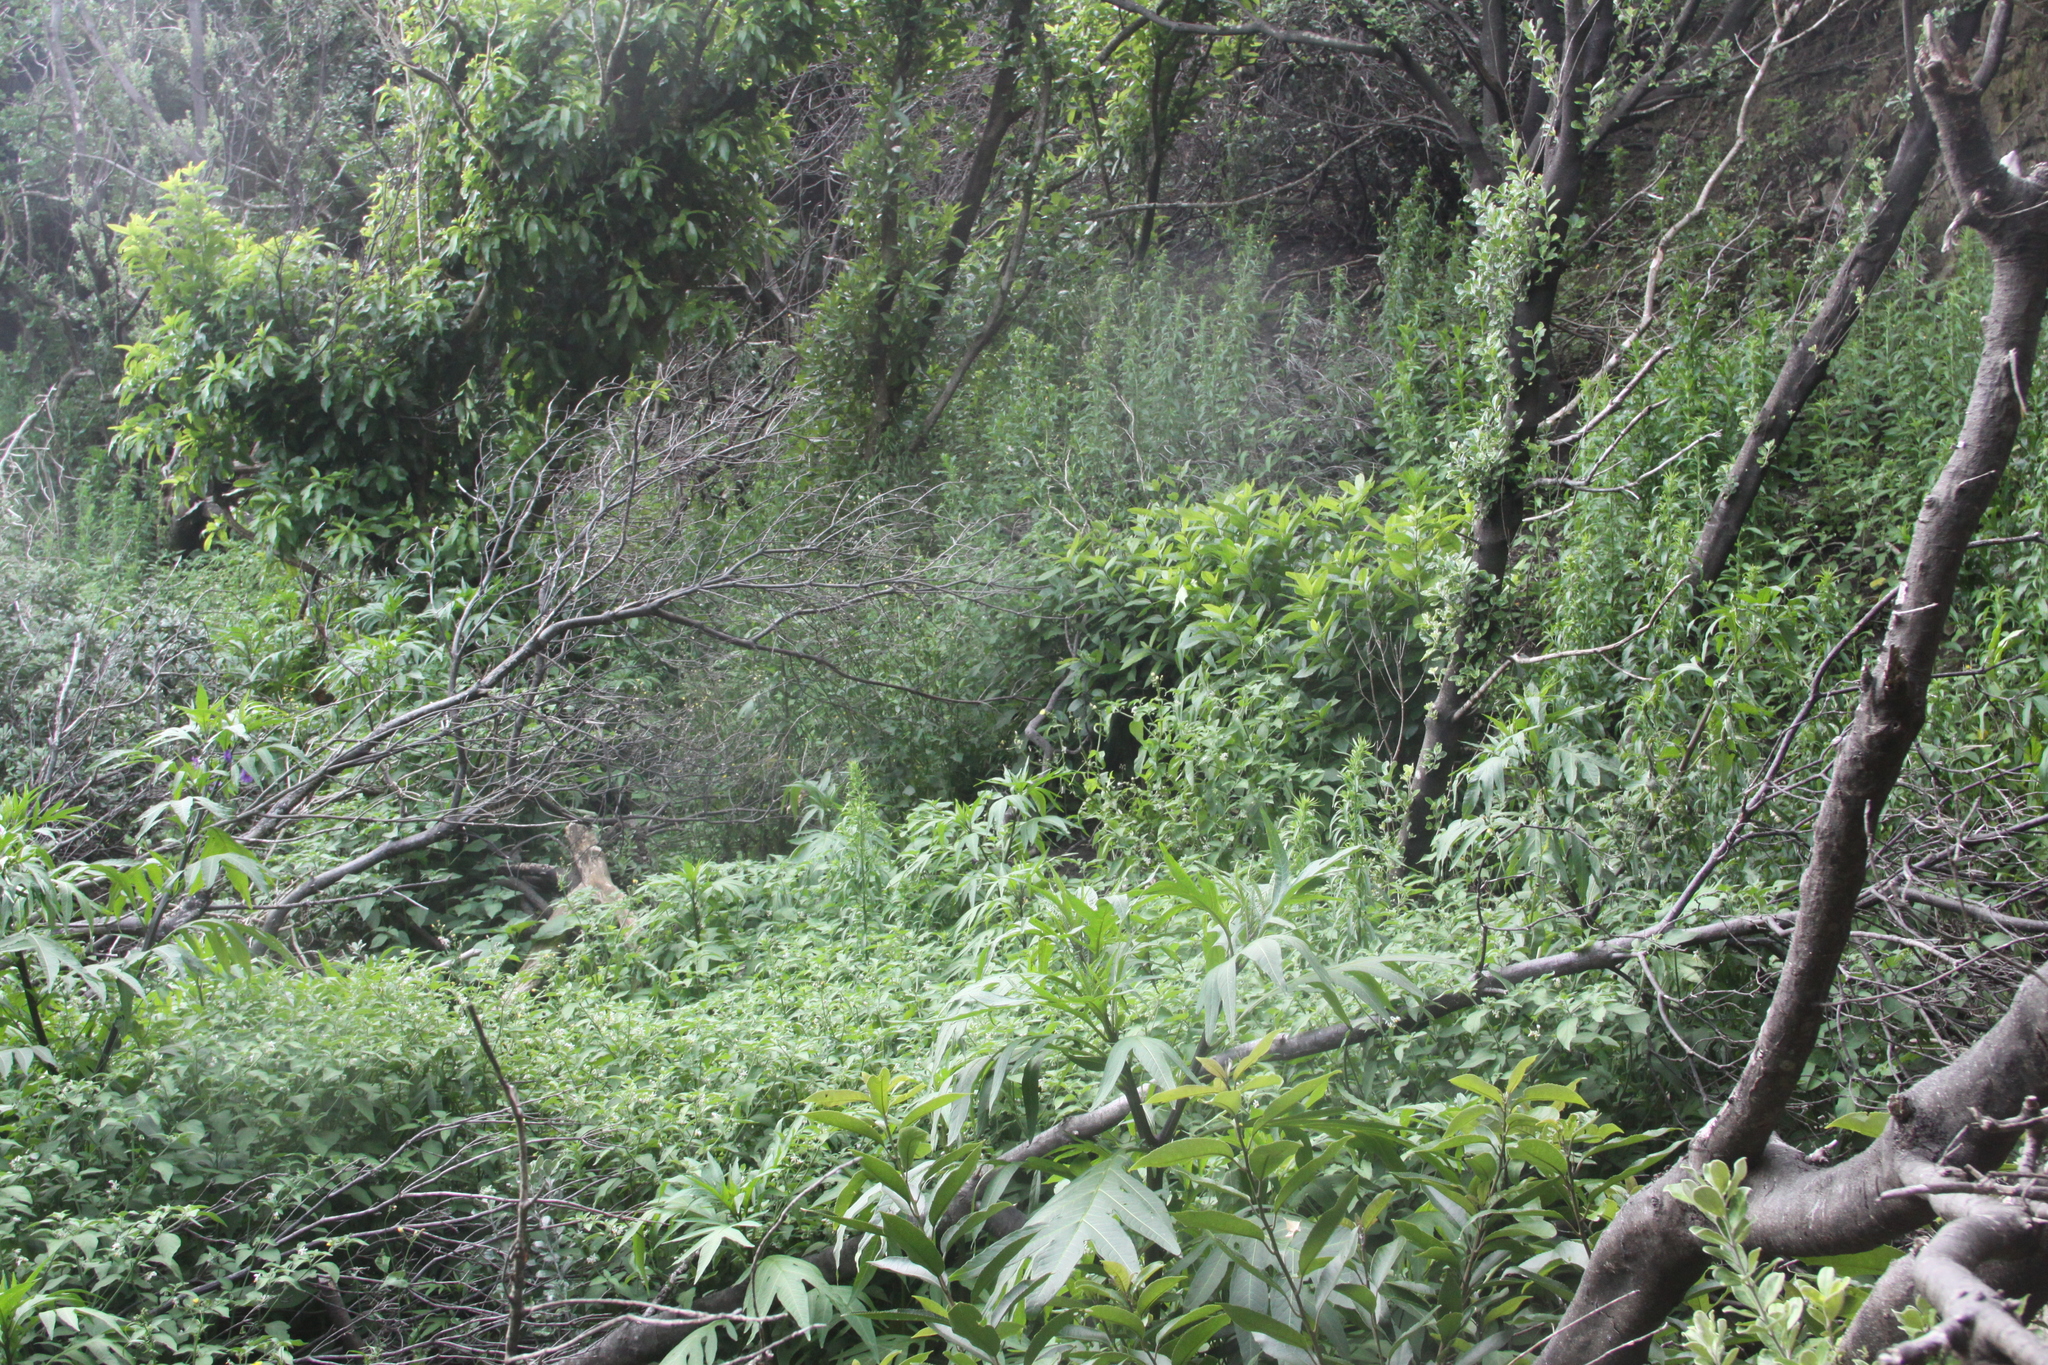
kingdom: Plantae
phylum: Tracheophyta
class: Magnoliopsida
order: Solanales
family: Solanaceae
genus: Solanum
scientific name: Solanum laciniatum
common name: Kangaroo-apple
